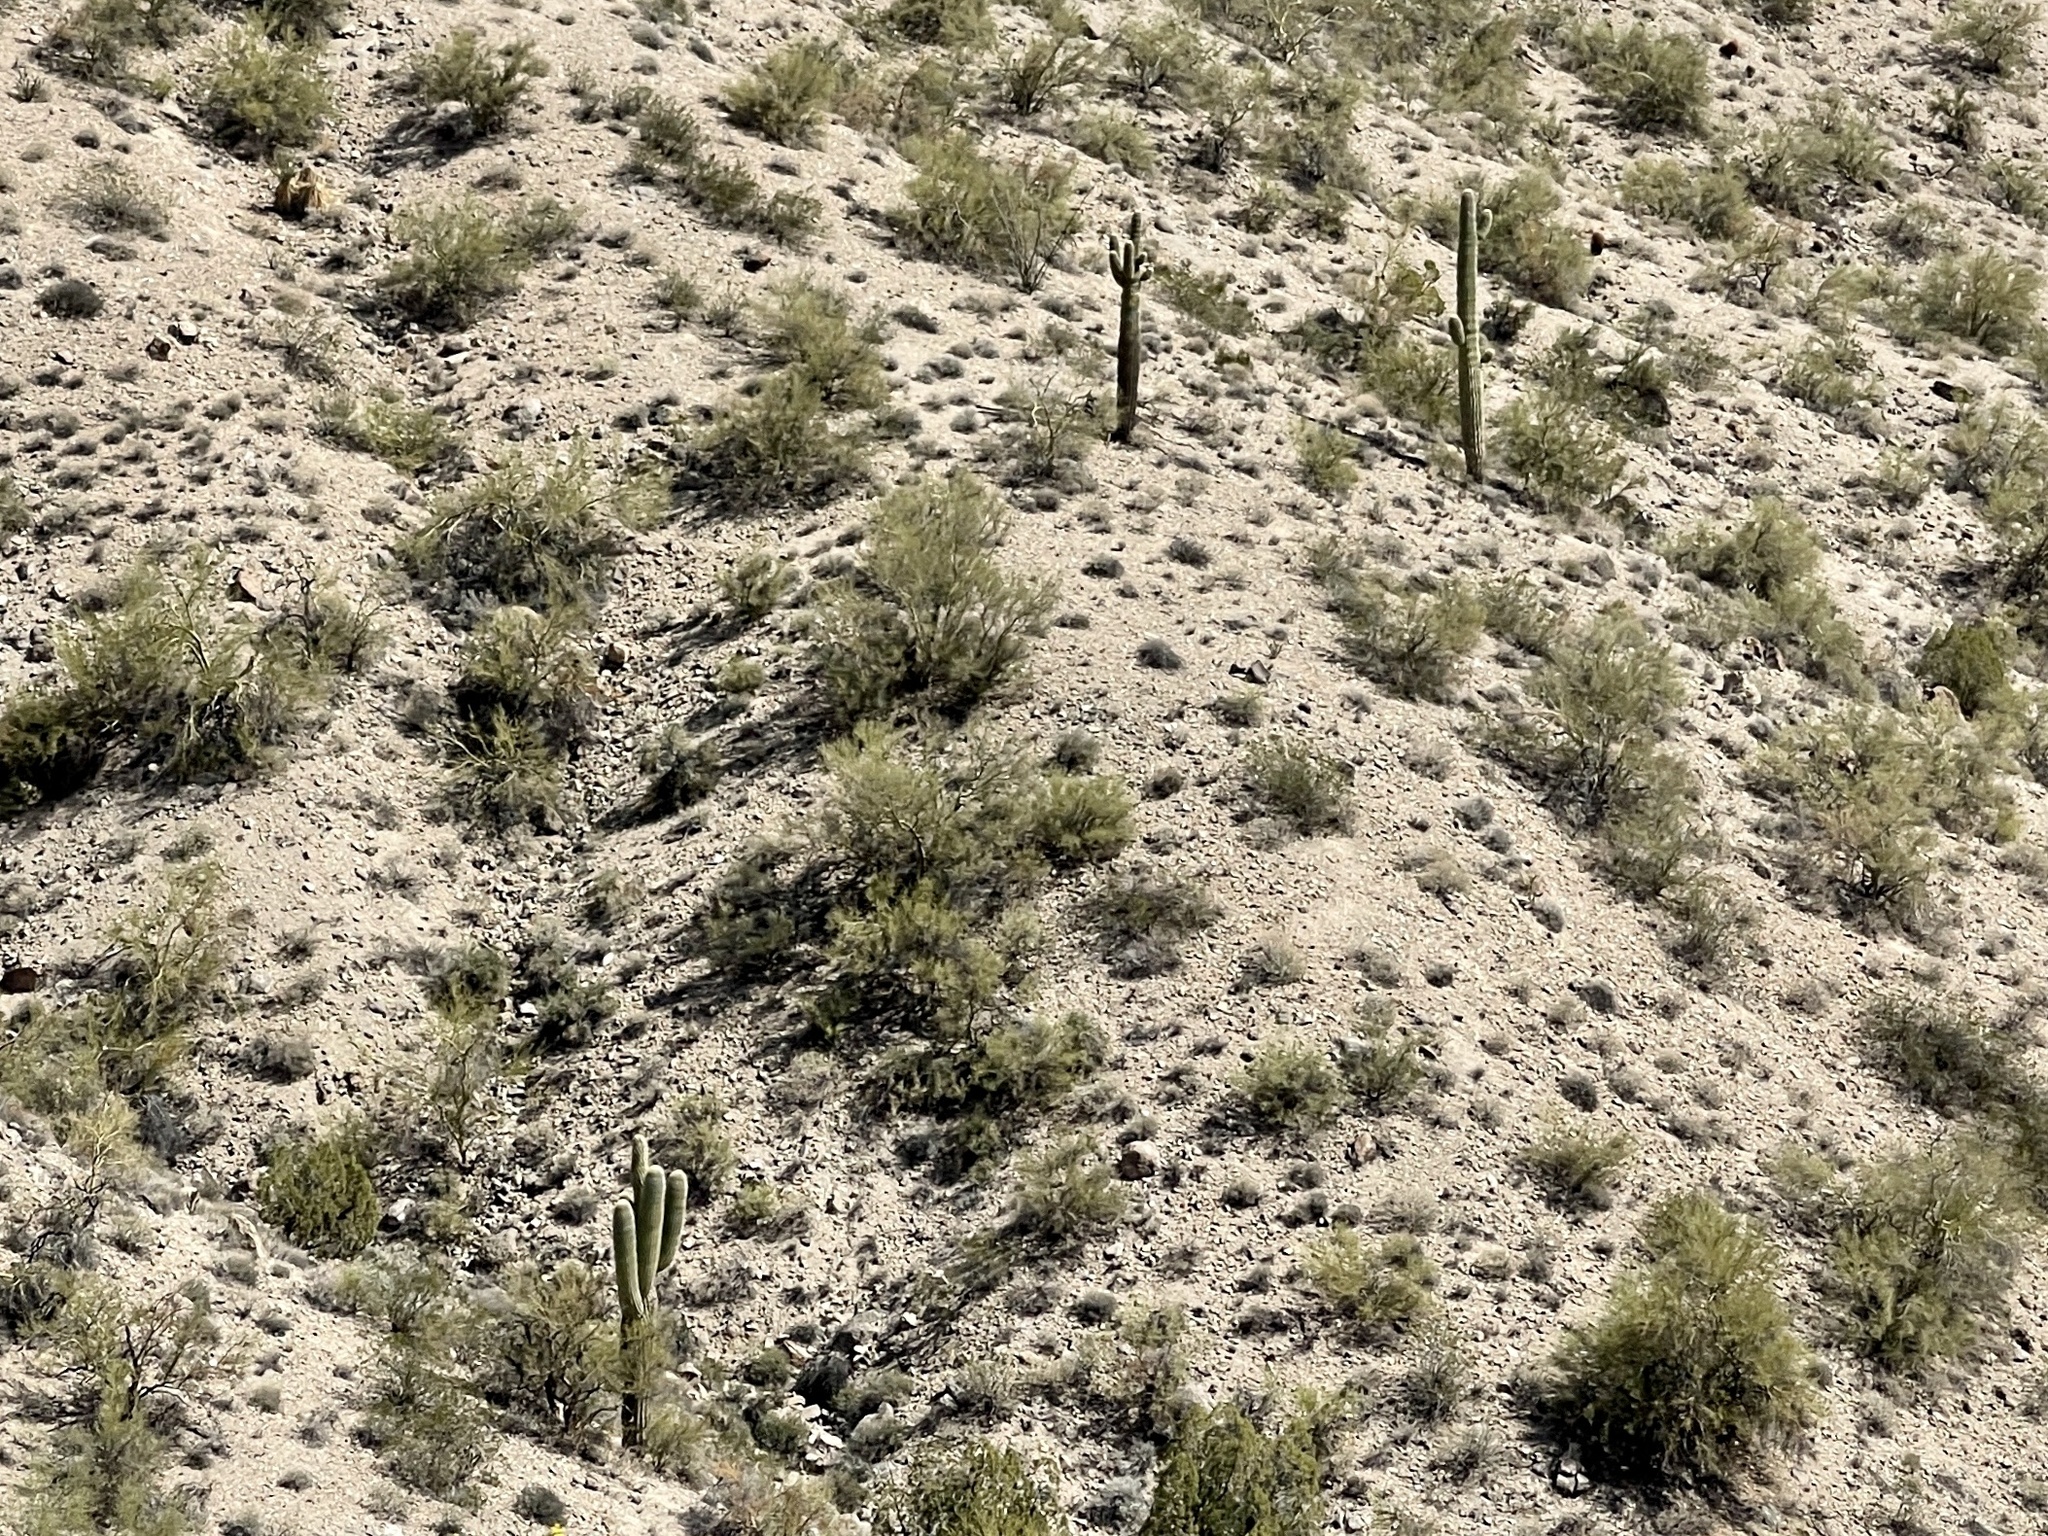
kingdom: Plantae
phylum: Tracheophyta
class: Magnoliopsida
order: Caryophyllales
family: Cactaceae
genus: Carnegiea
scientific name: Carnegiea gigantea
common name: Saguaro
